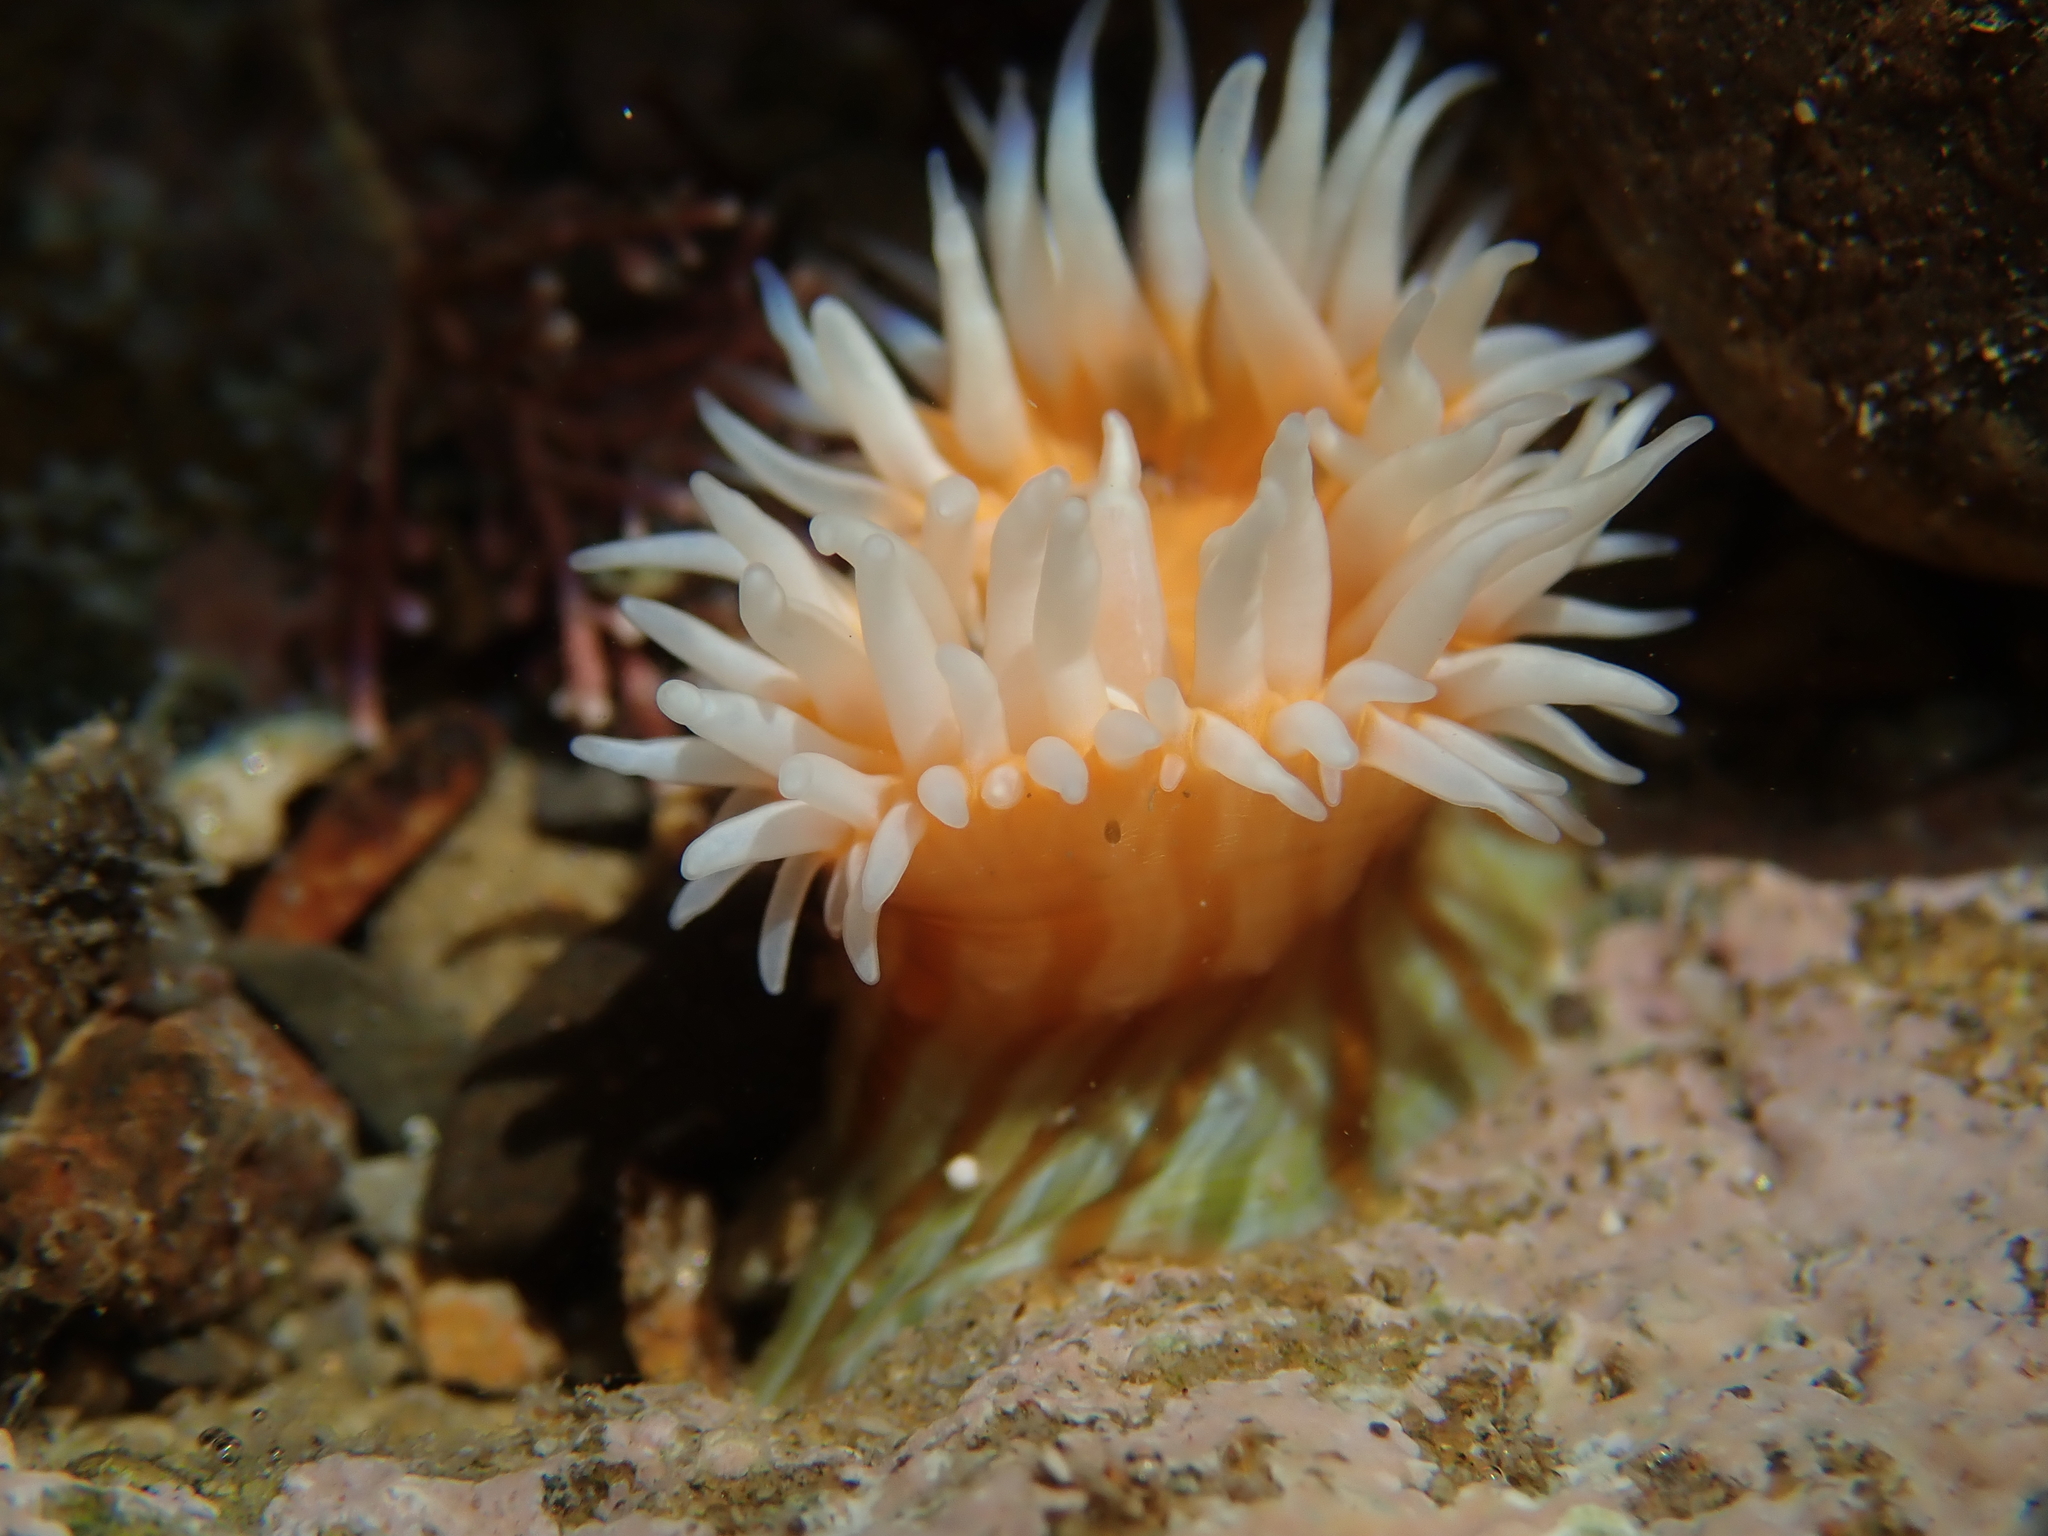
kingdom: Animalia
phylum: Cnidaria
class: Anthozoa
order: Actiniaria
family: Sagartiidae
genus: Anthothoe
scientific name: Anthothoe albocincta
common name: Orange striped anemone
